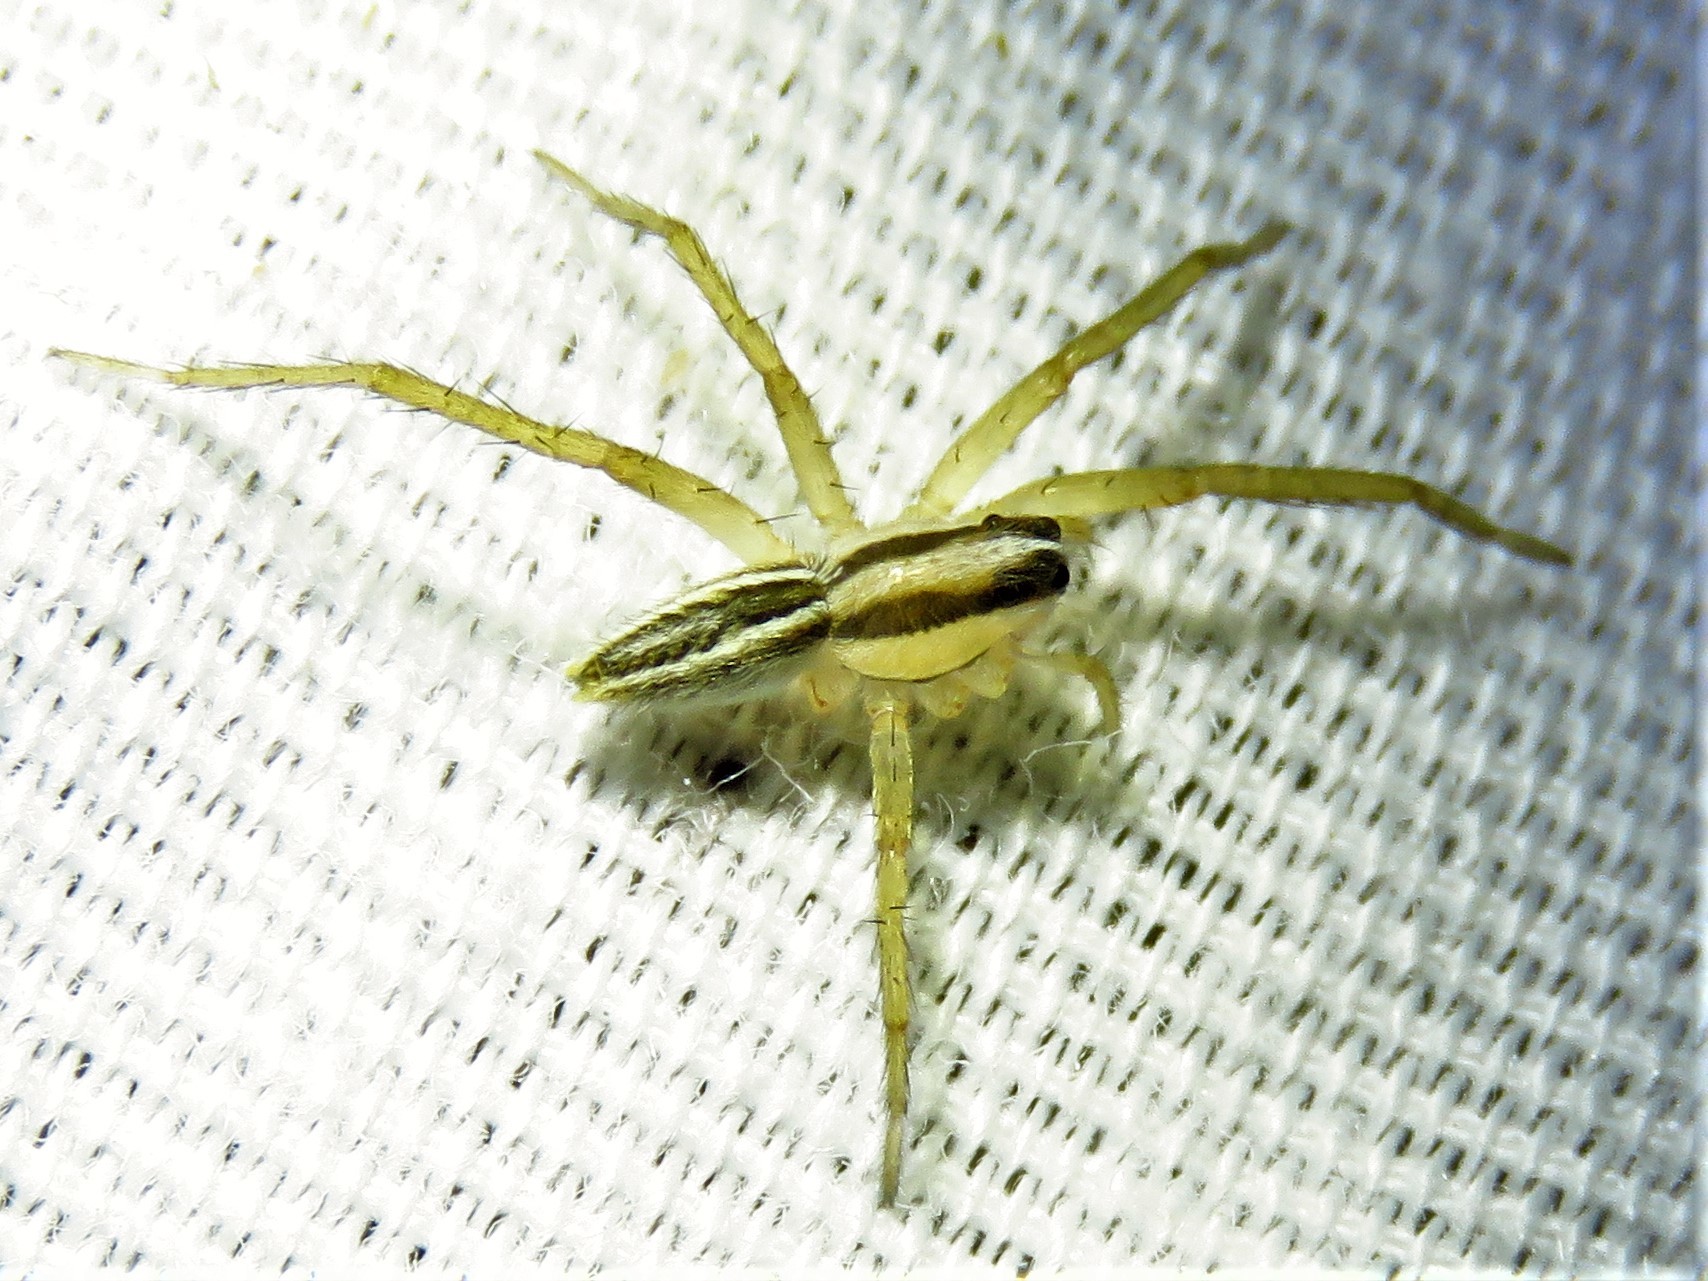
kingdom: Animalia
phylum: Arthropoda
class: Arachnida
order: Araneae
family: Lycosidae
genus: Rabidosa
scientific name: Rabidosa rabida
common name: Rabid wolf spider
